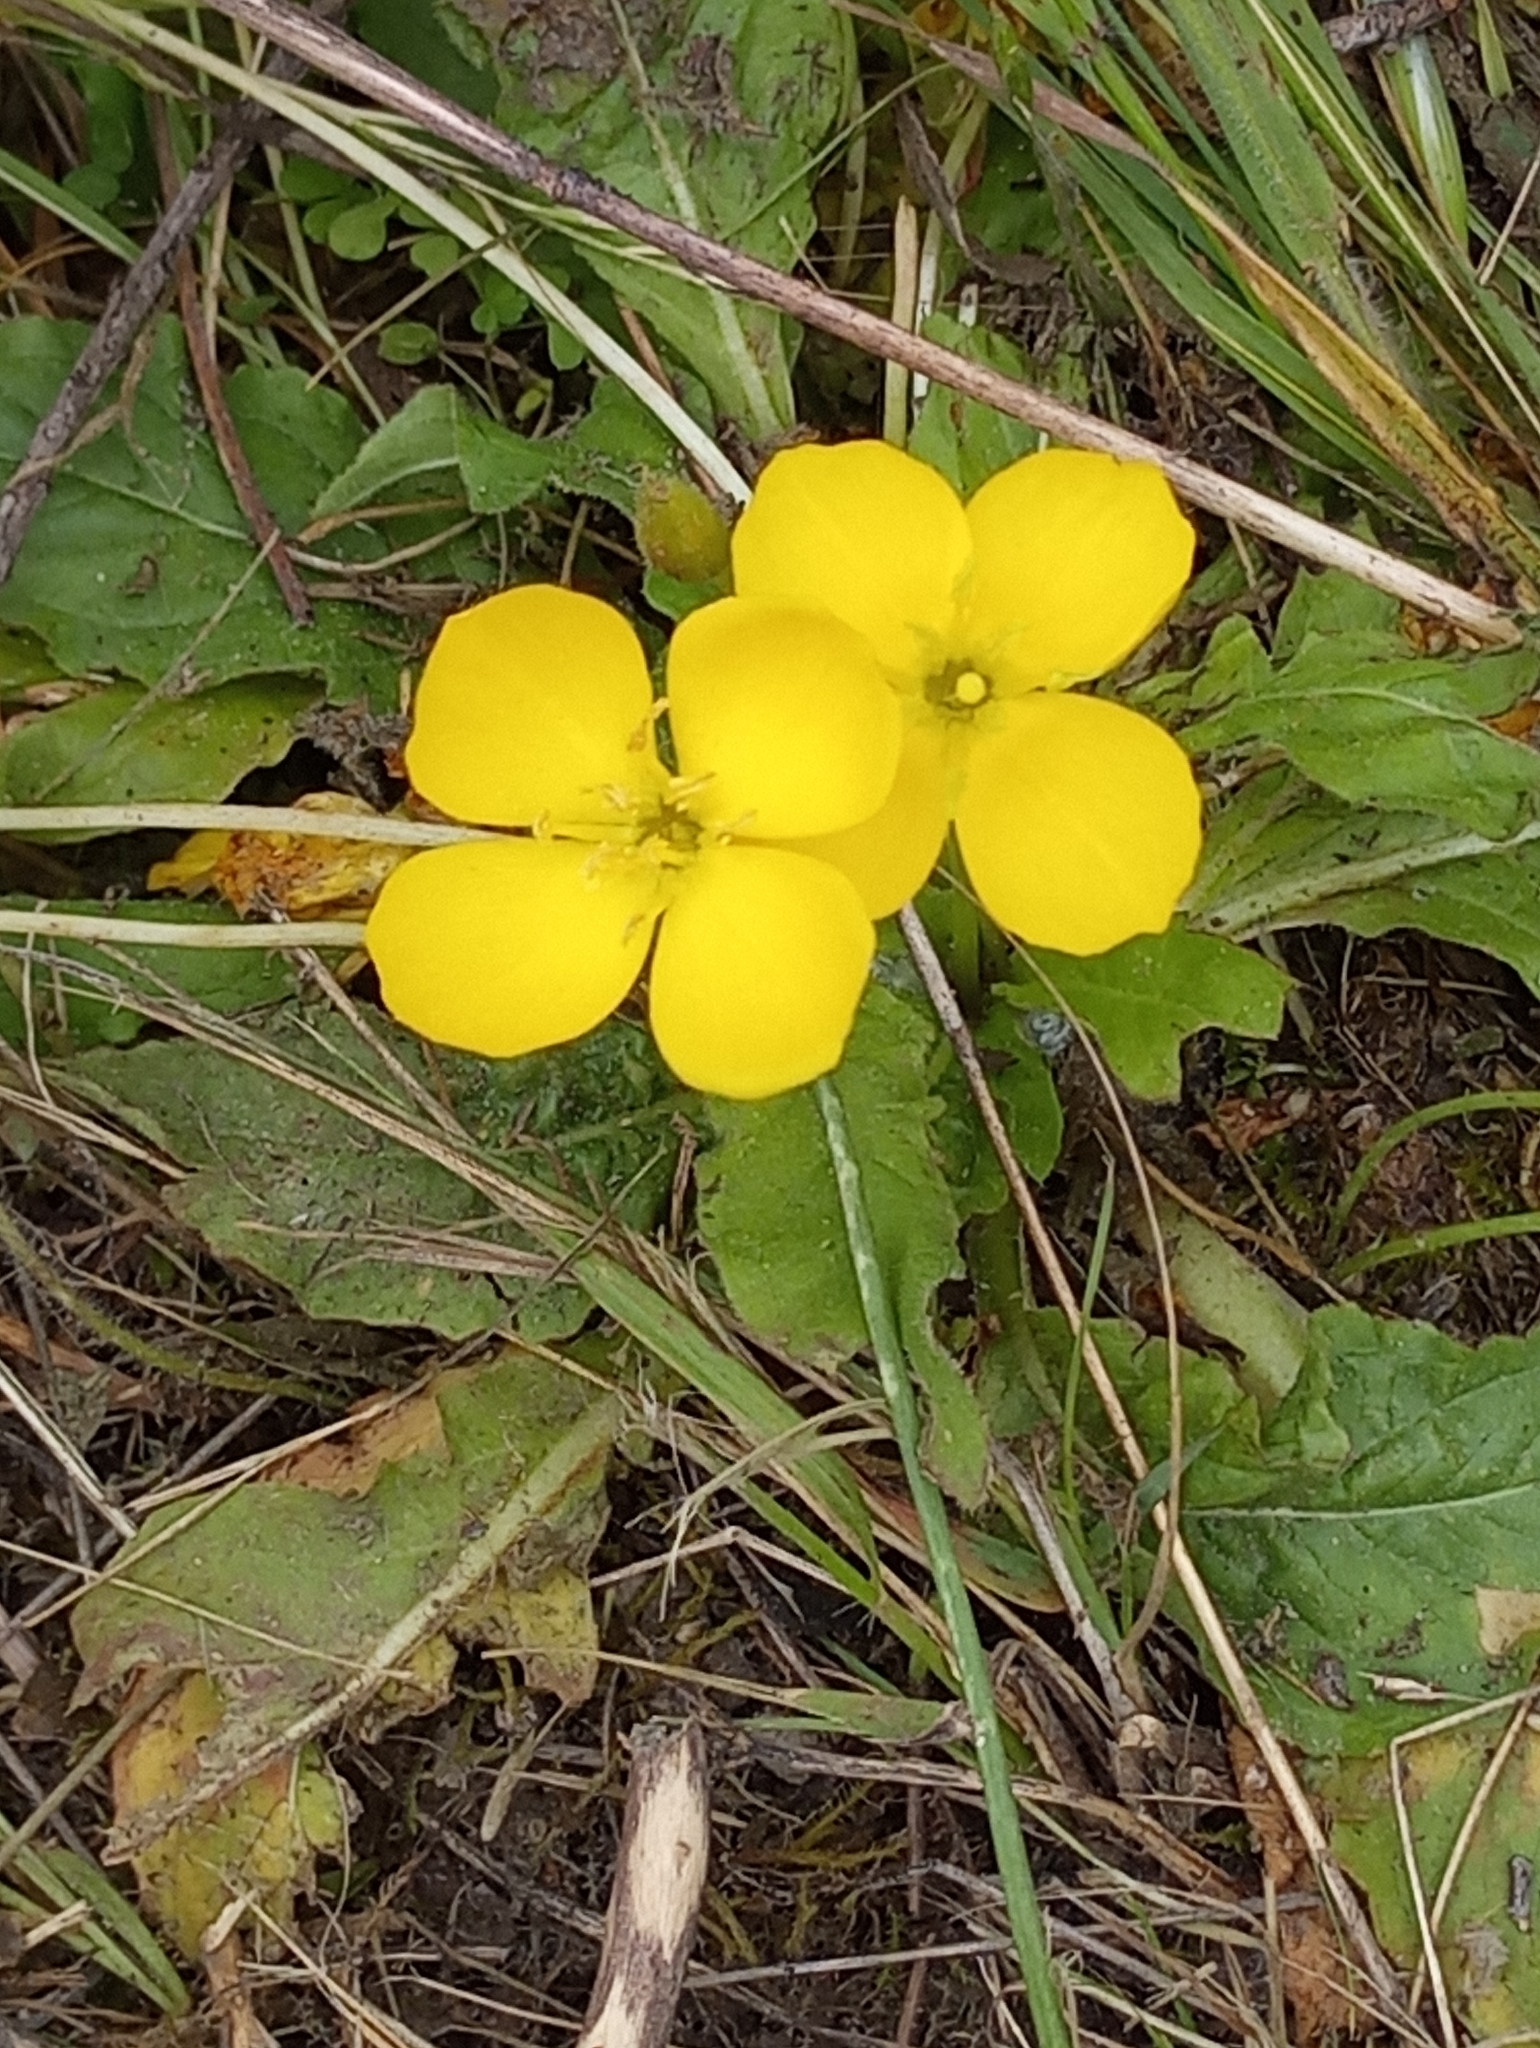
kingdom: Plantae
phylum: Tracheophyta
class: Magnoliopsida
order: Myrtales
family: Onagraceae
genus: Taraxia
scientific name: Taraxia ovata
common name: Goldeneggs
